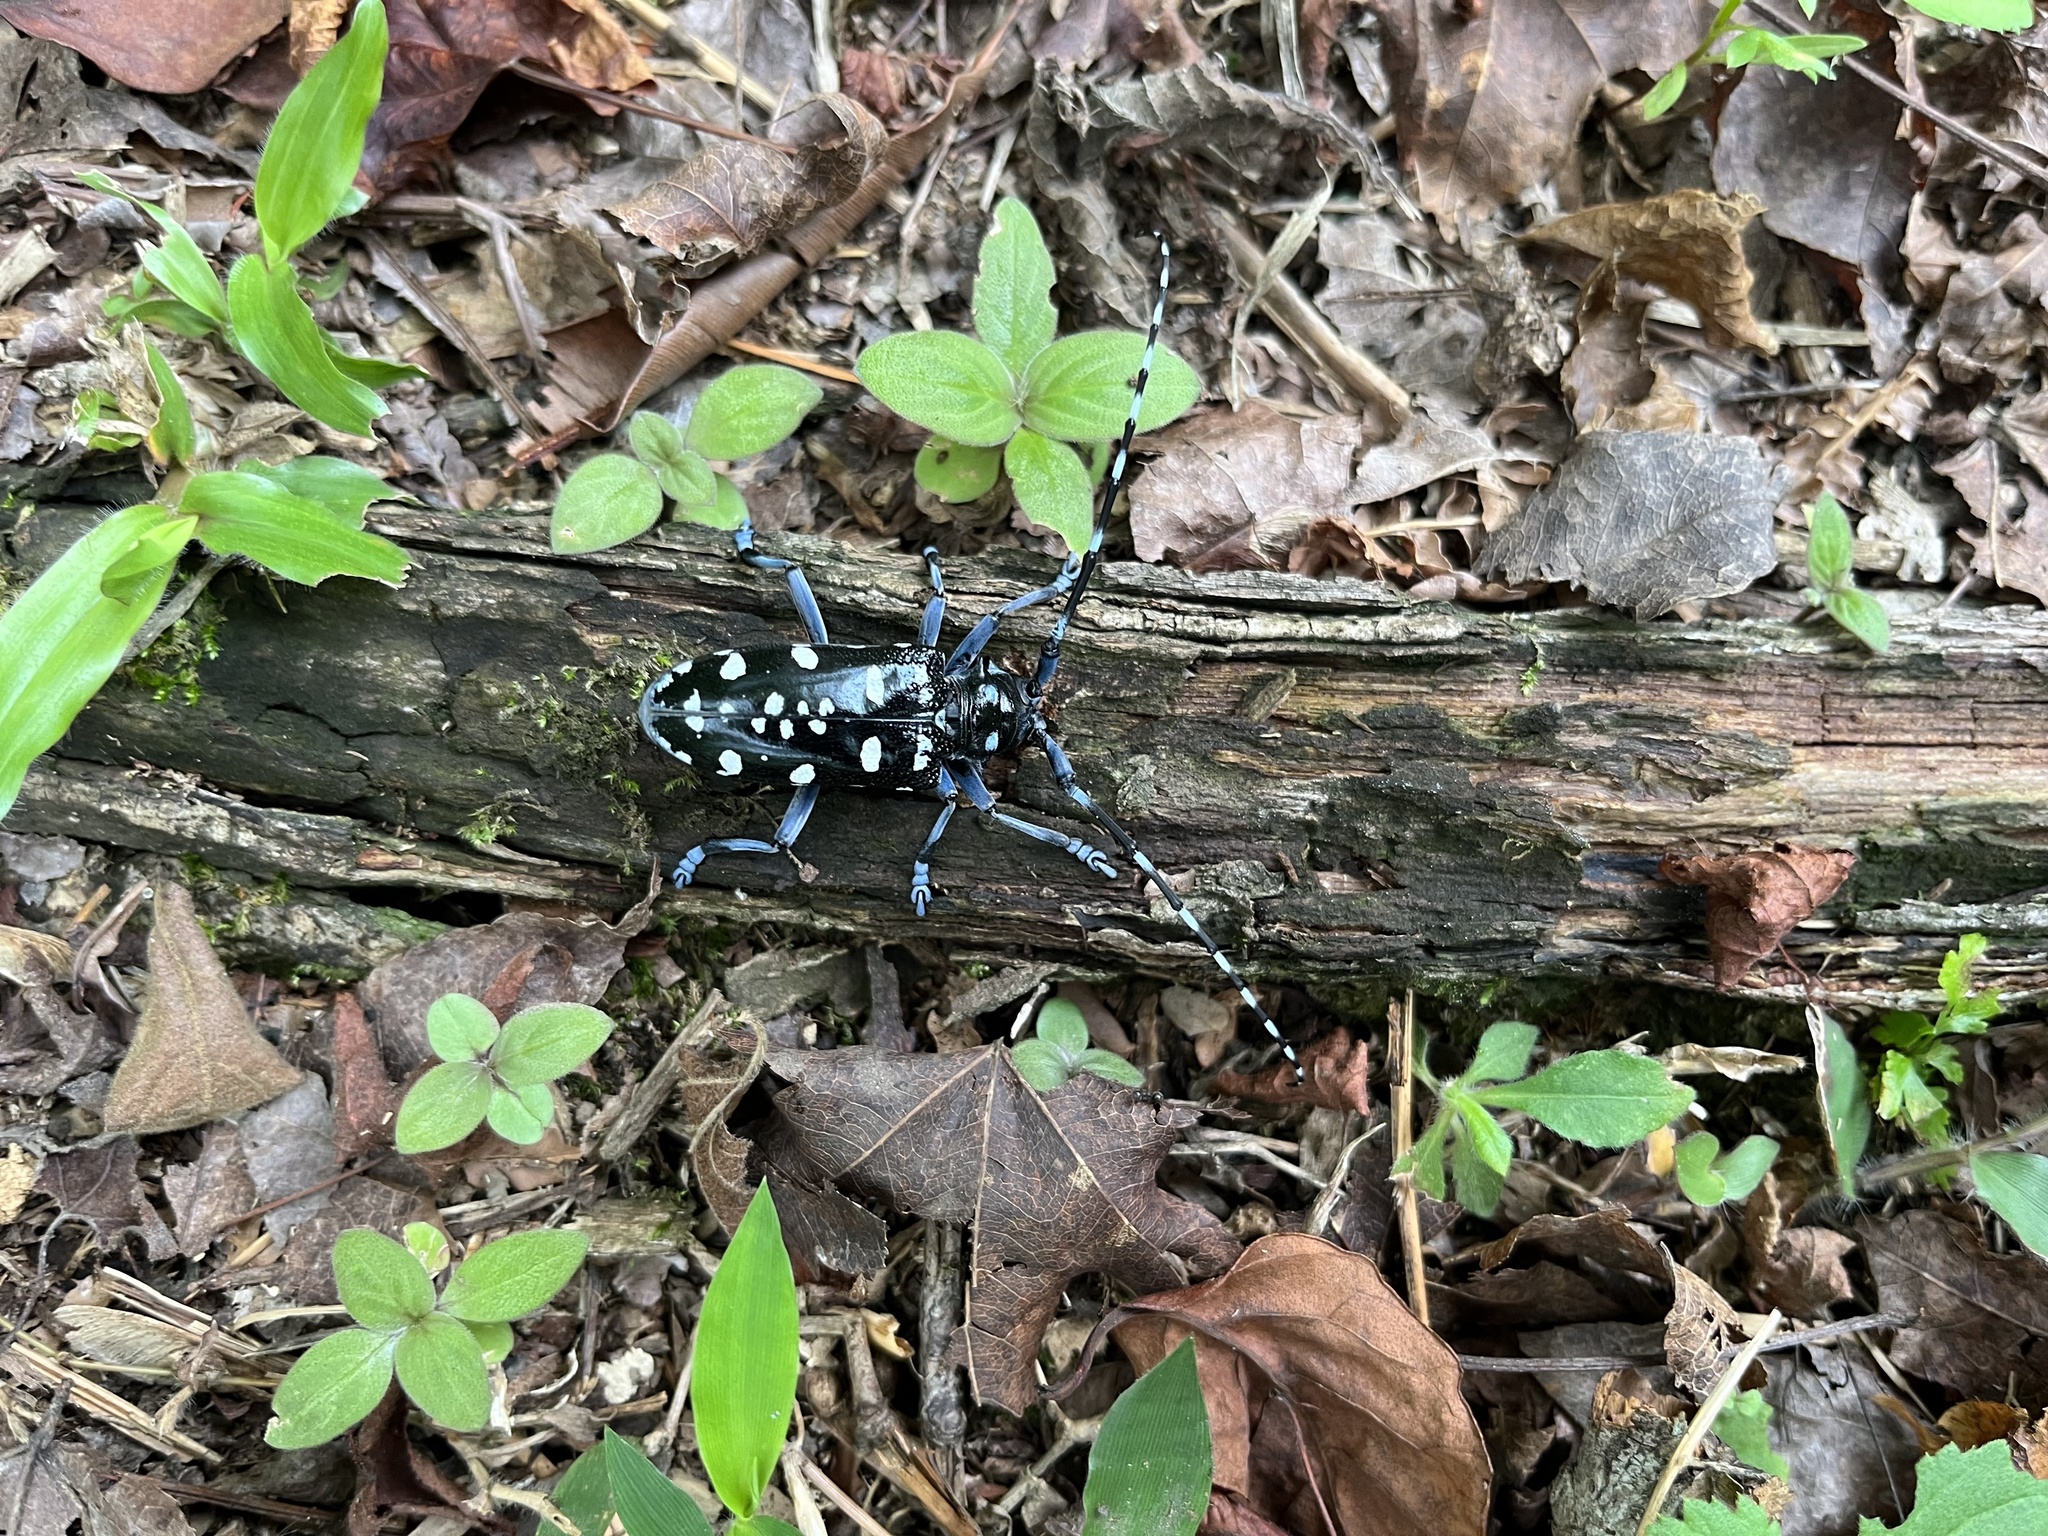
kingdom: Animalia
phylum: Arthropoda
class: Insecta
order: Coleoptera
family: Cerambycidae
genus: Anoplophora
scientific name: Anoplophora macularia
